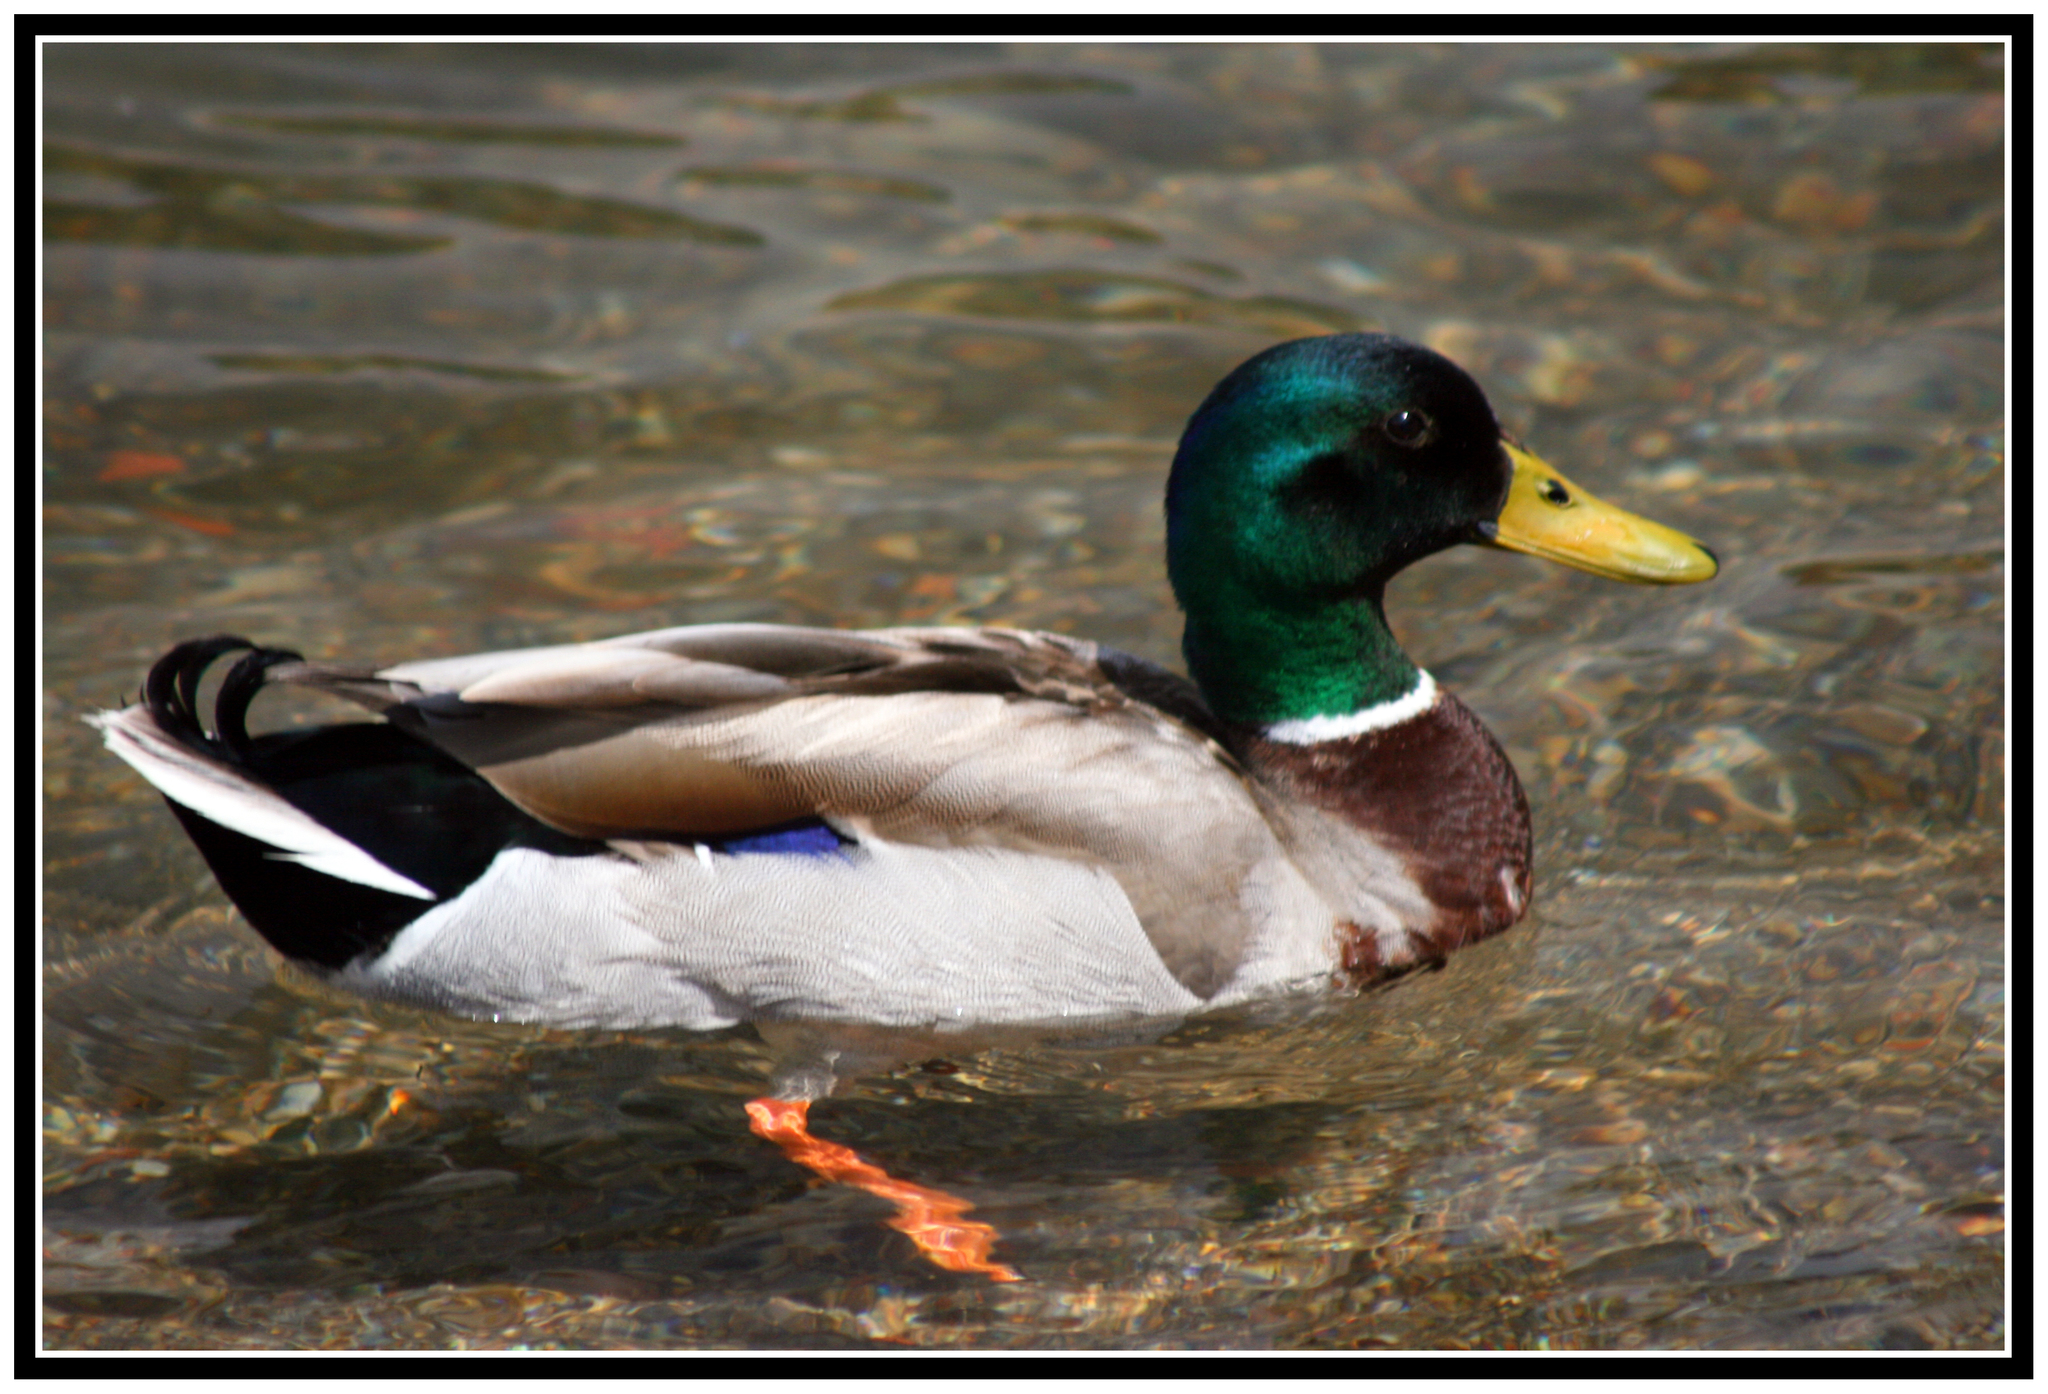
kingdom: Animalia
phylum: Chordata
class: Aves
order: Anseriformes
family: Anatidae
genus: Anas
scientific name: Anas platyrhynchos
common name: Mallard
